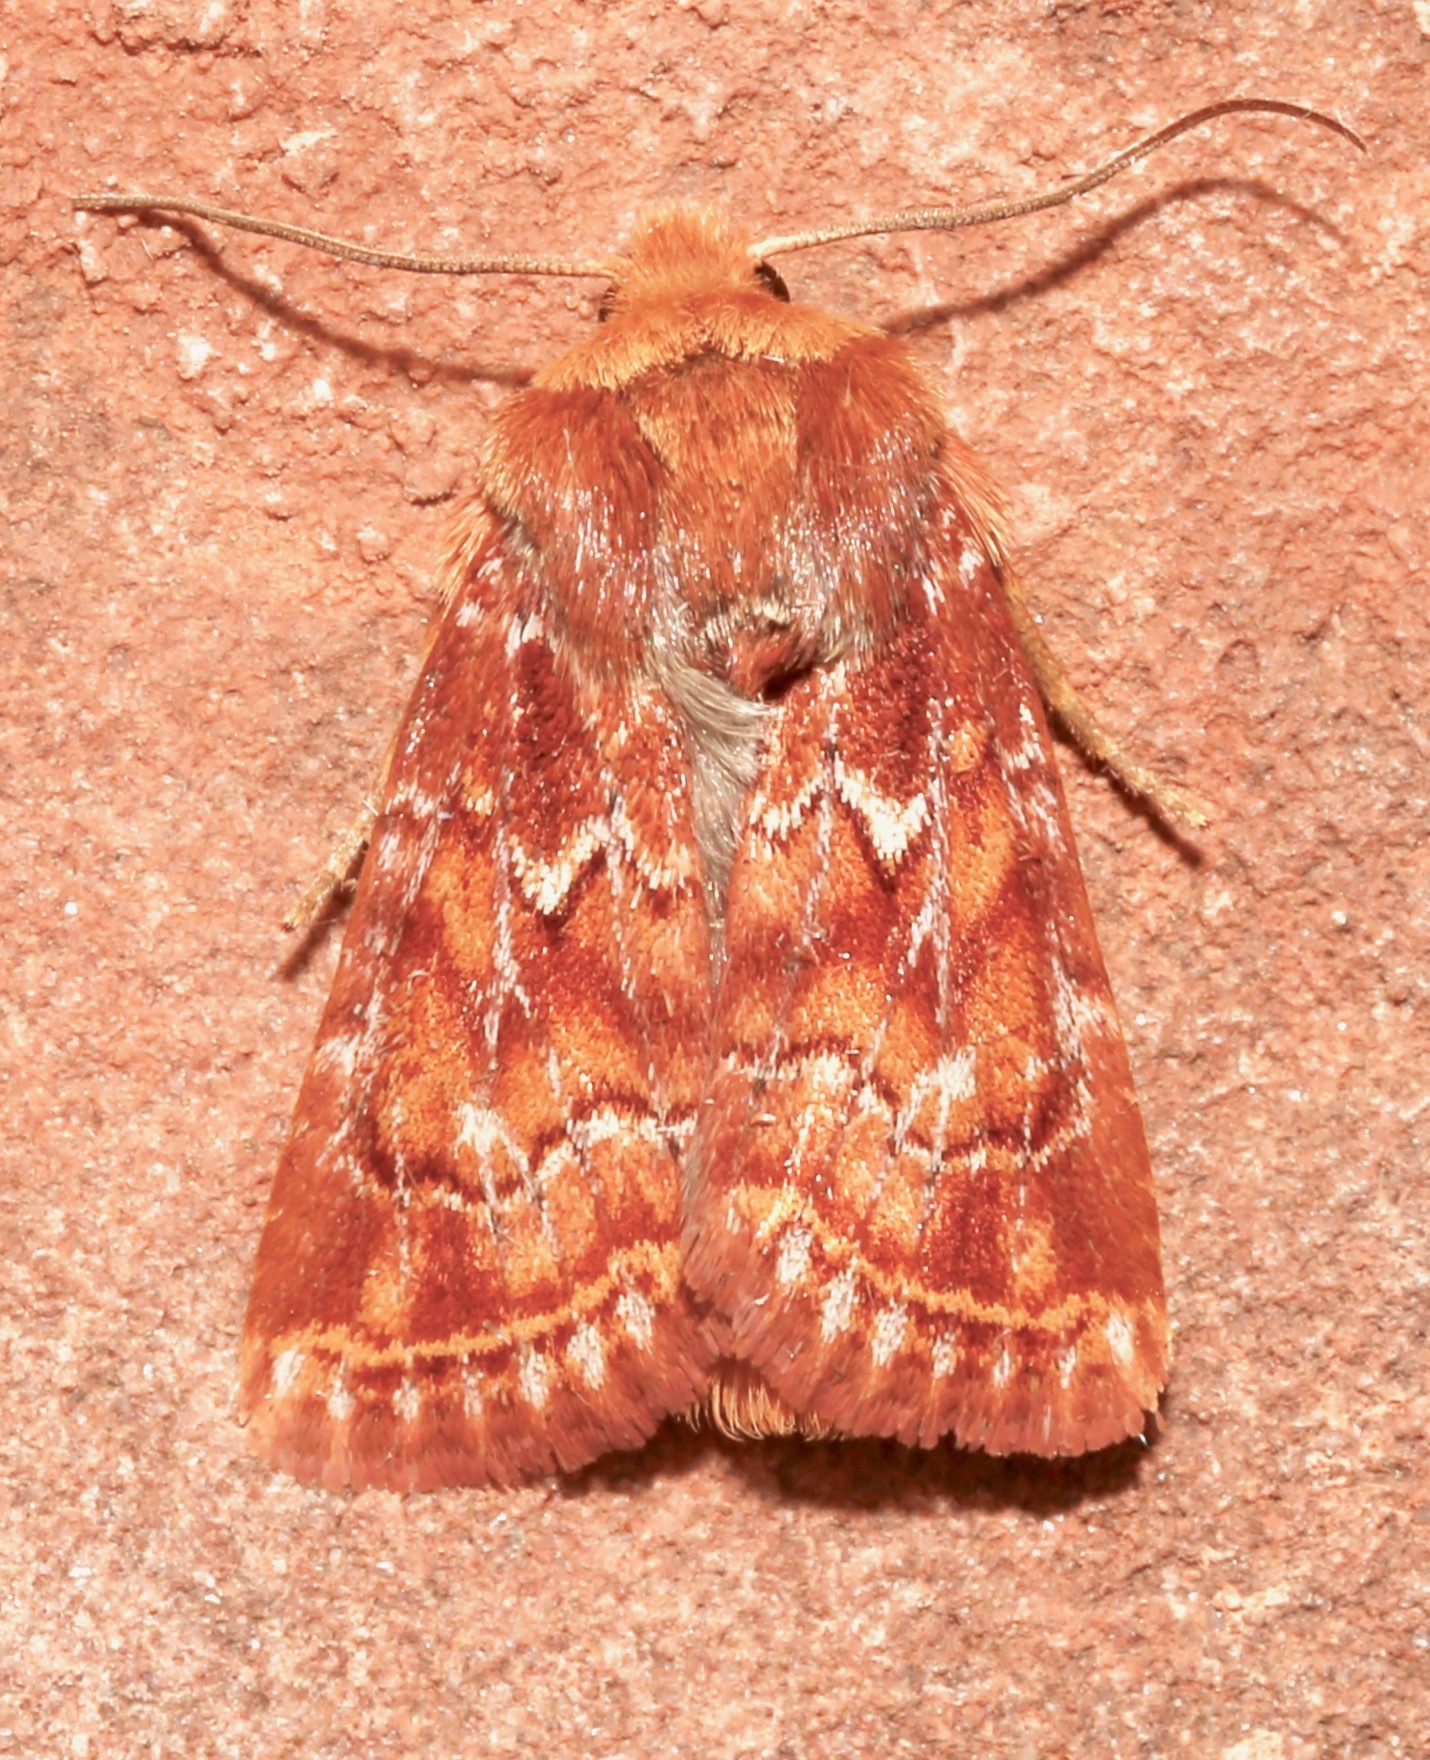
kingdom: Animalia
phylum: Arthropoda
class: Insecta
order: Lepidoptera
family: Noctuidae
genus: Homorthodes
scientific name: Homorthodes reliqua
